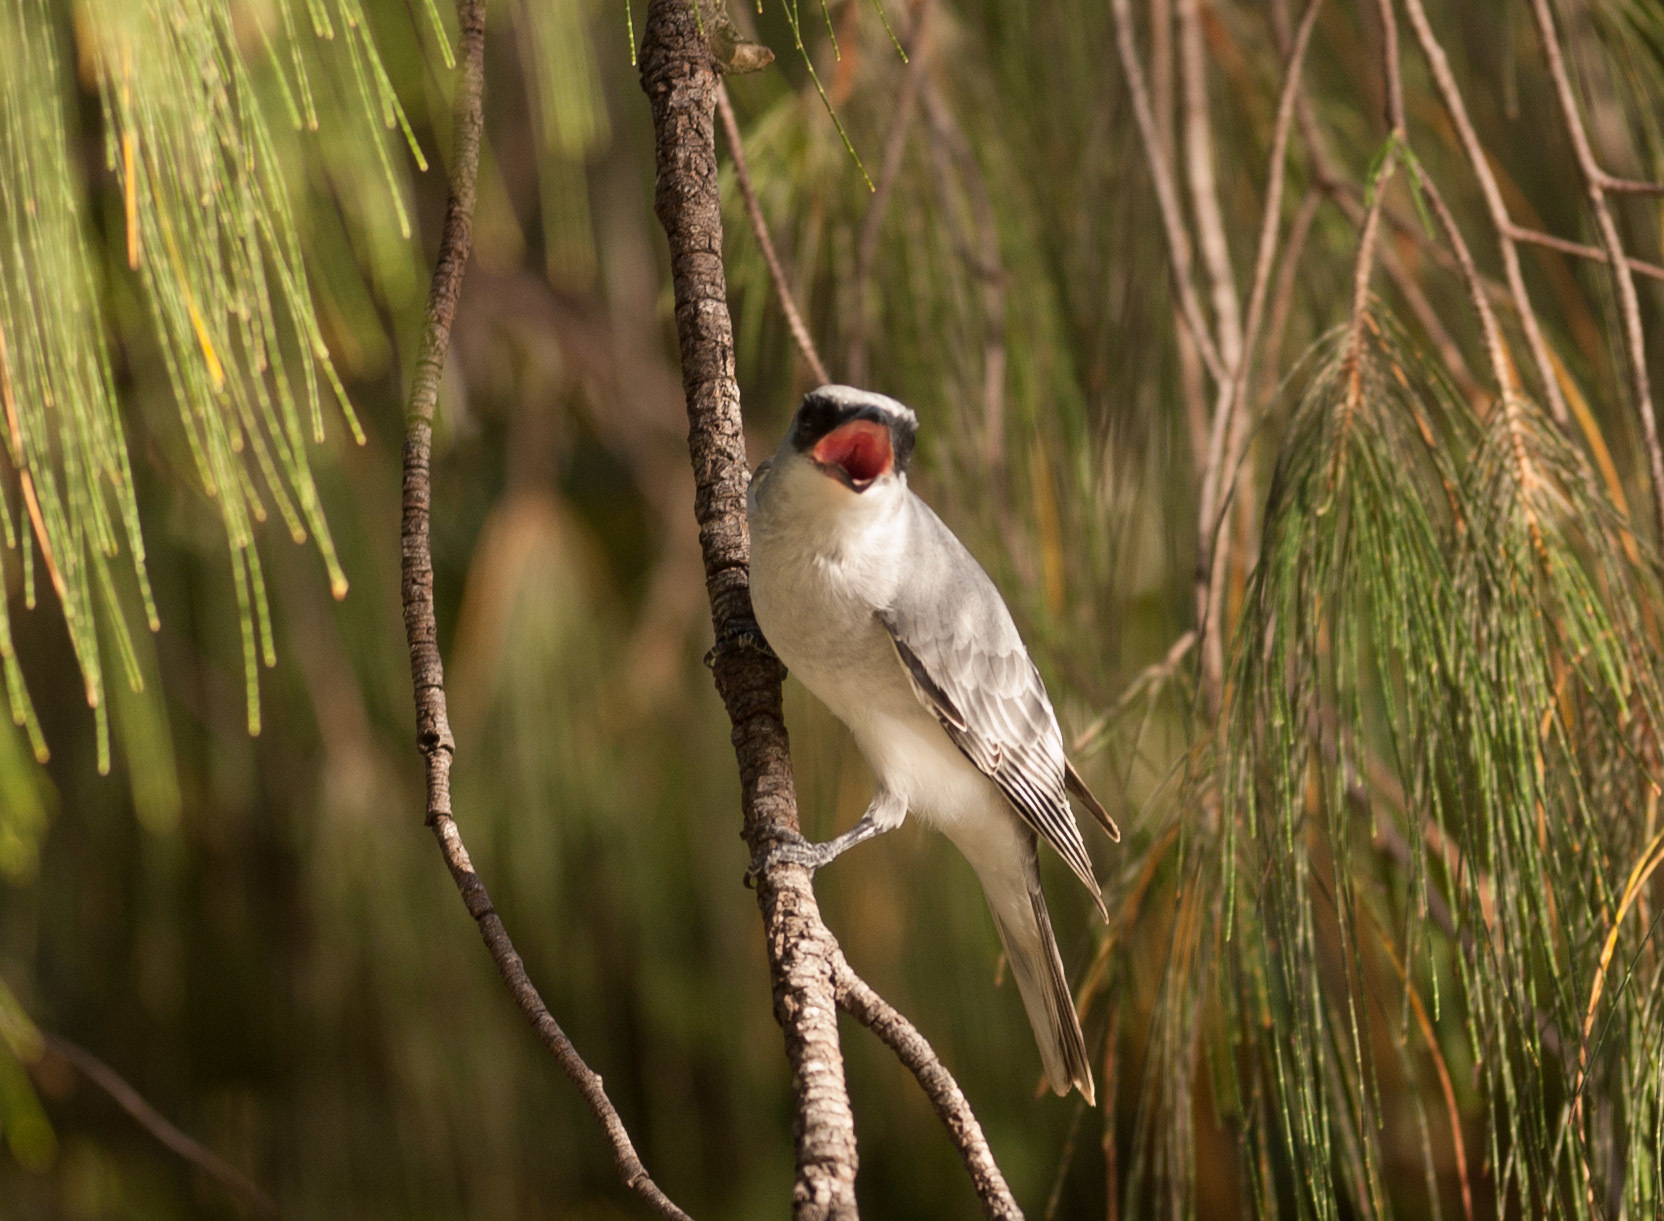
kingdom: Animalia
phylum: Chordata
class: Aves
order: Passeriformes
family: Campephagidae
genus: Coracina
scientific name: Coracina papuensis
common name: White-bellied cuckooshrike
